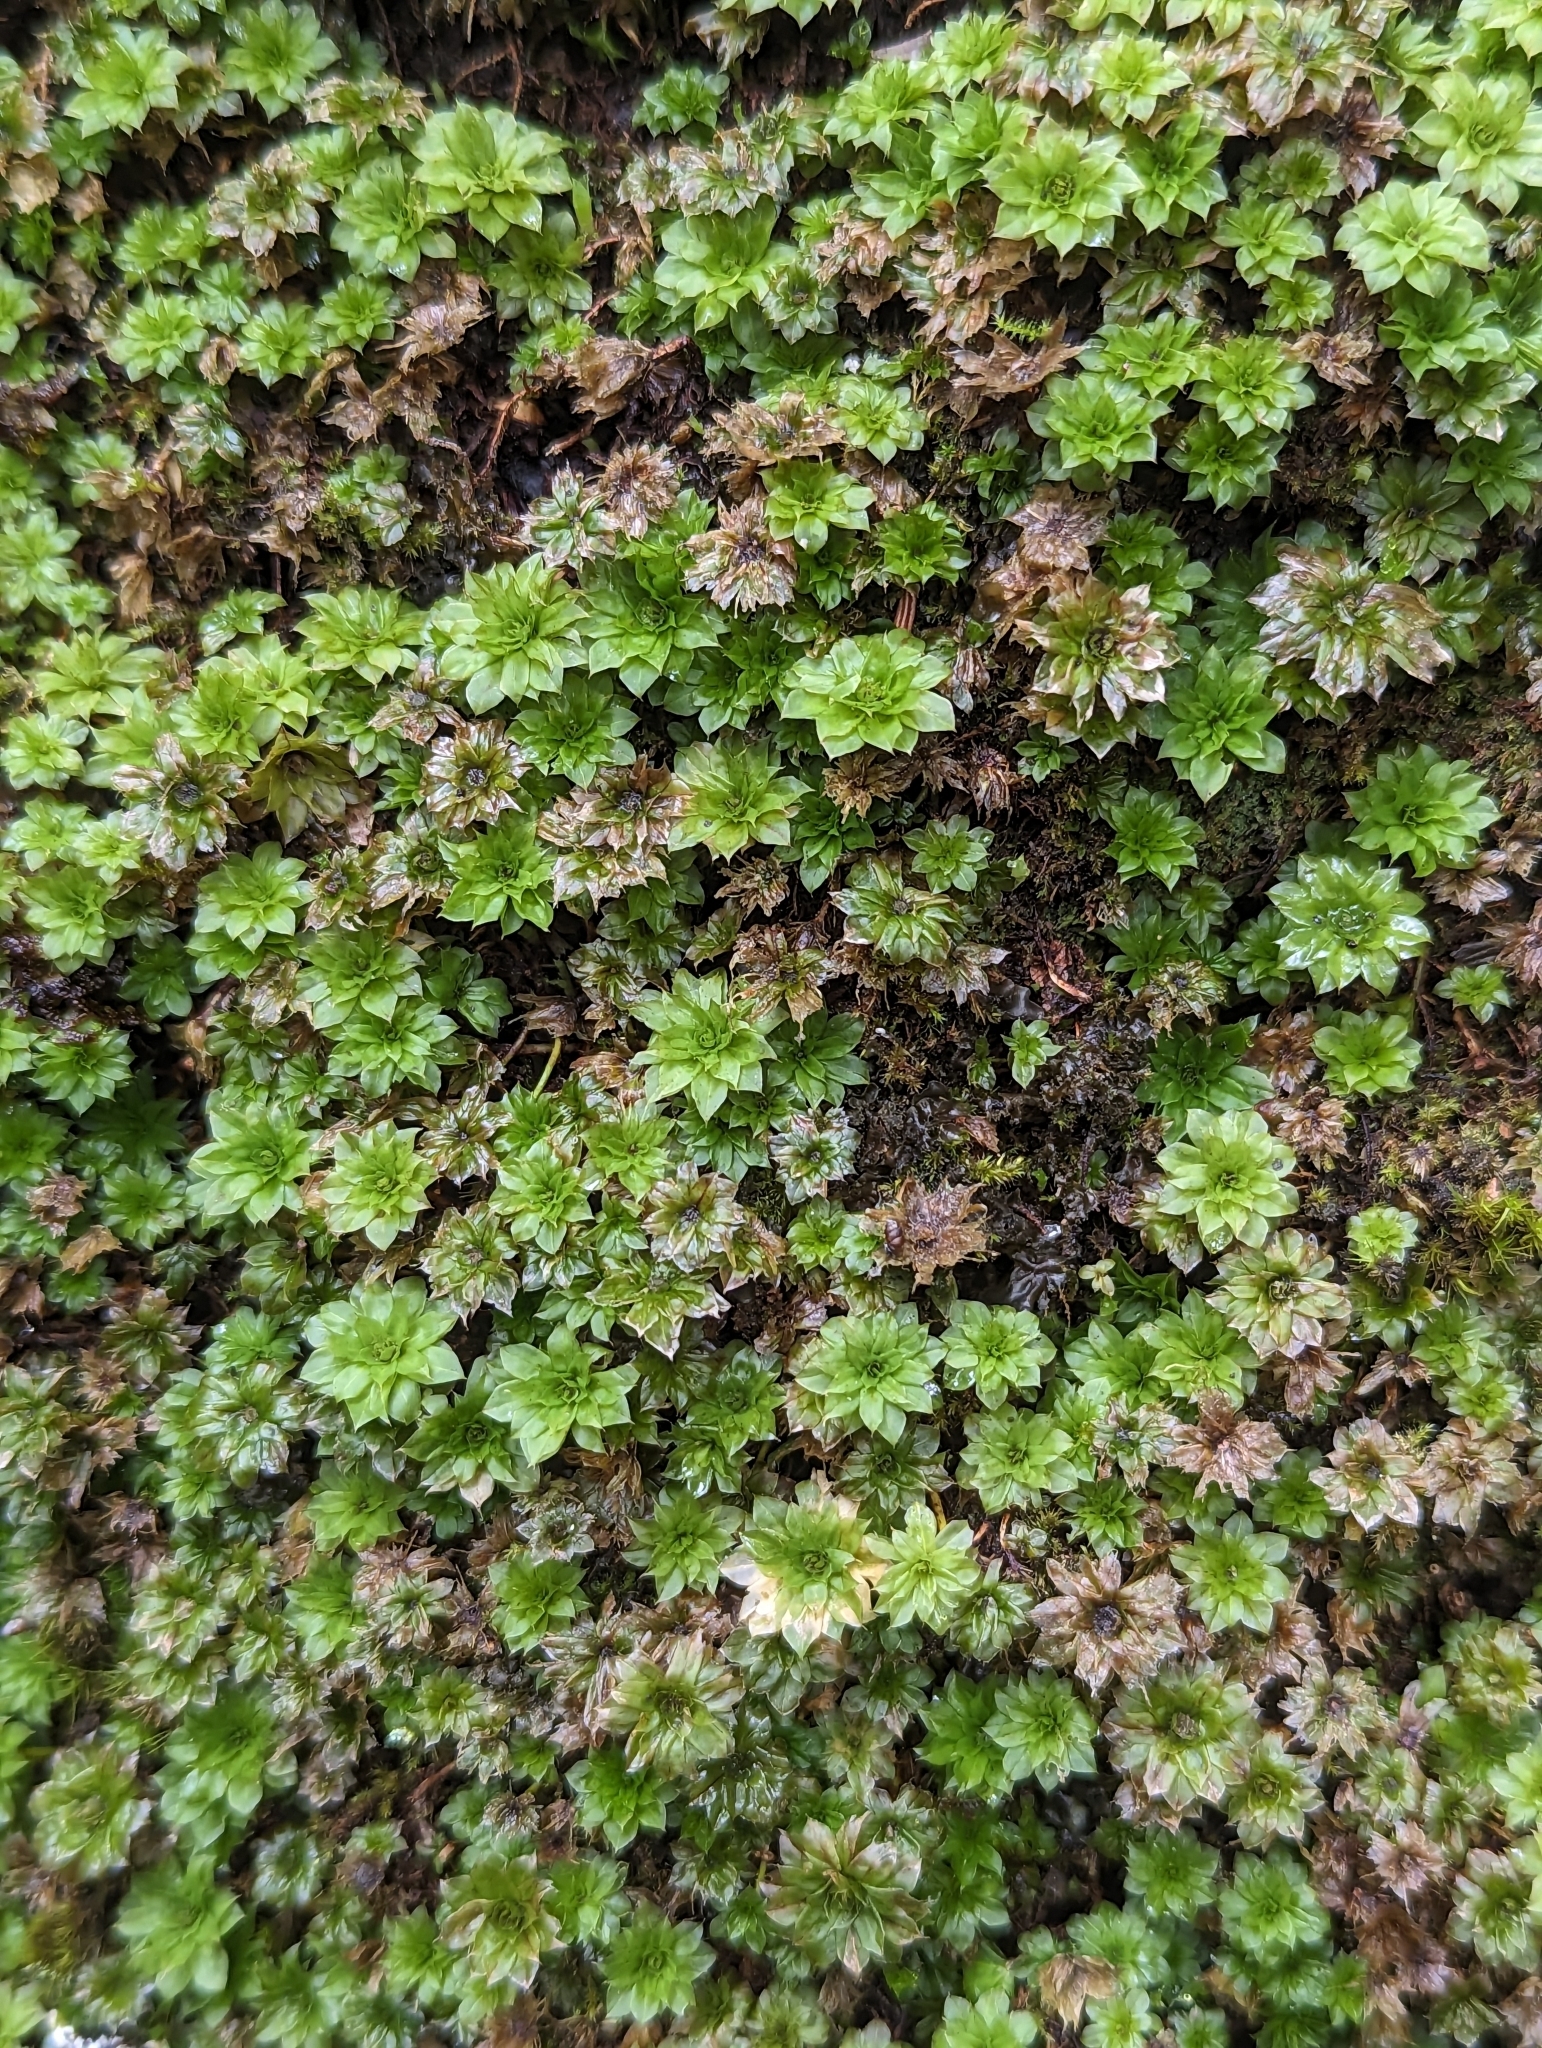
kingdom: Plantae
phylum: Bryophyta
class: Bryopsida
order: Bryales
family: Bryaceae
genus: Rhodobryum
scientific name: Rhodobryum ontariense
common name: Ontario rhodobryum moss
